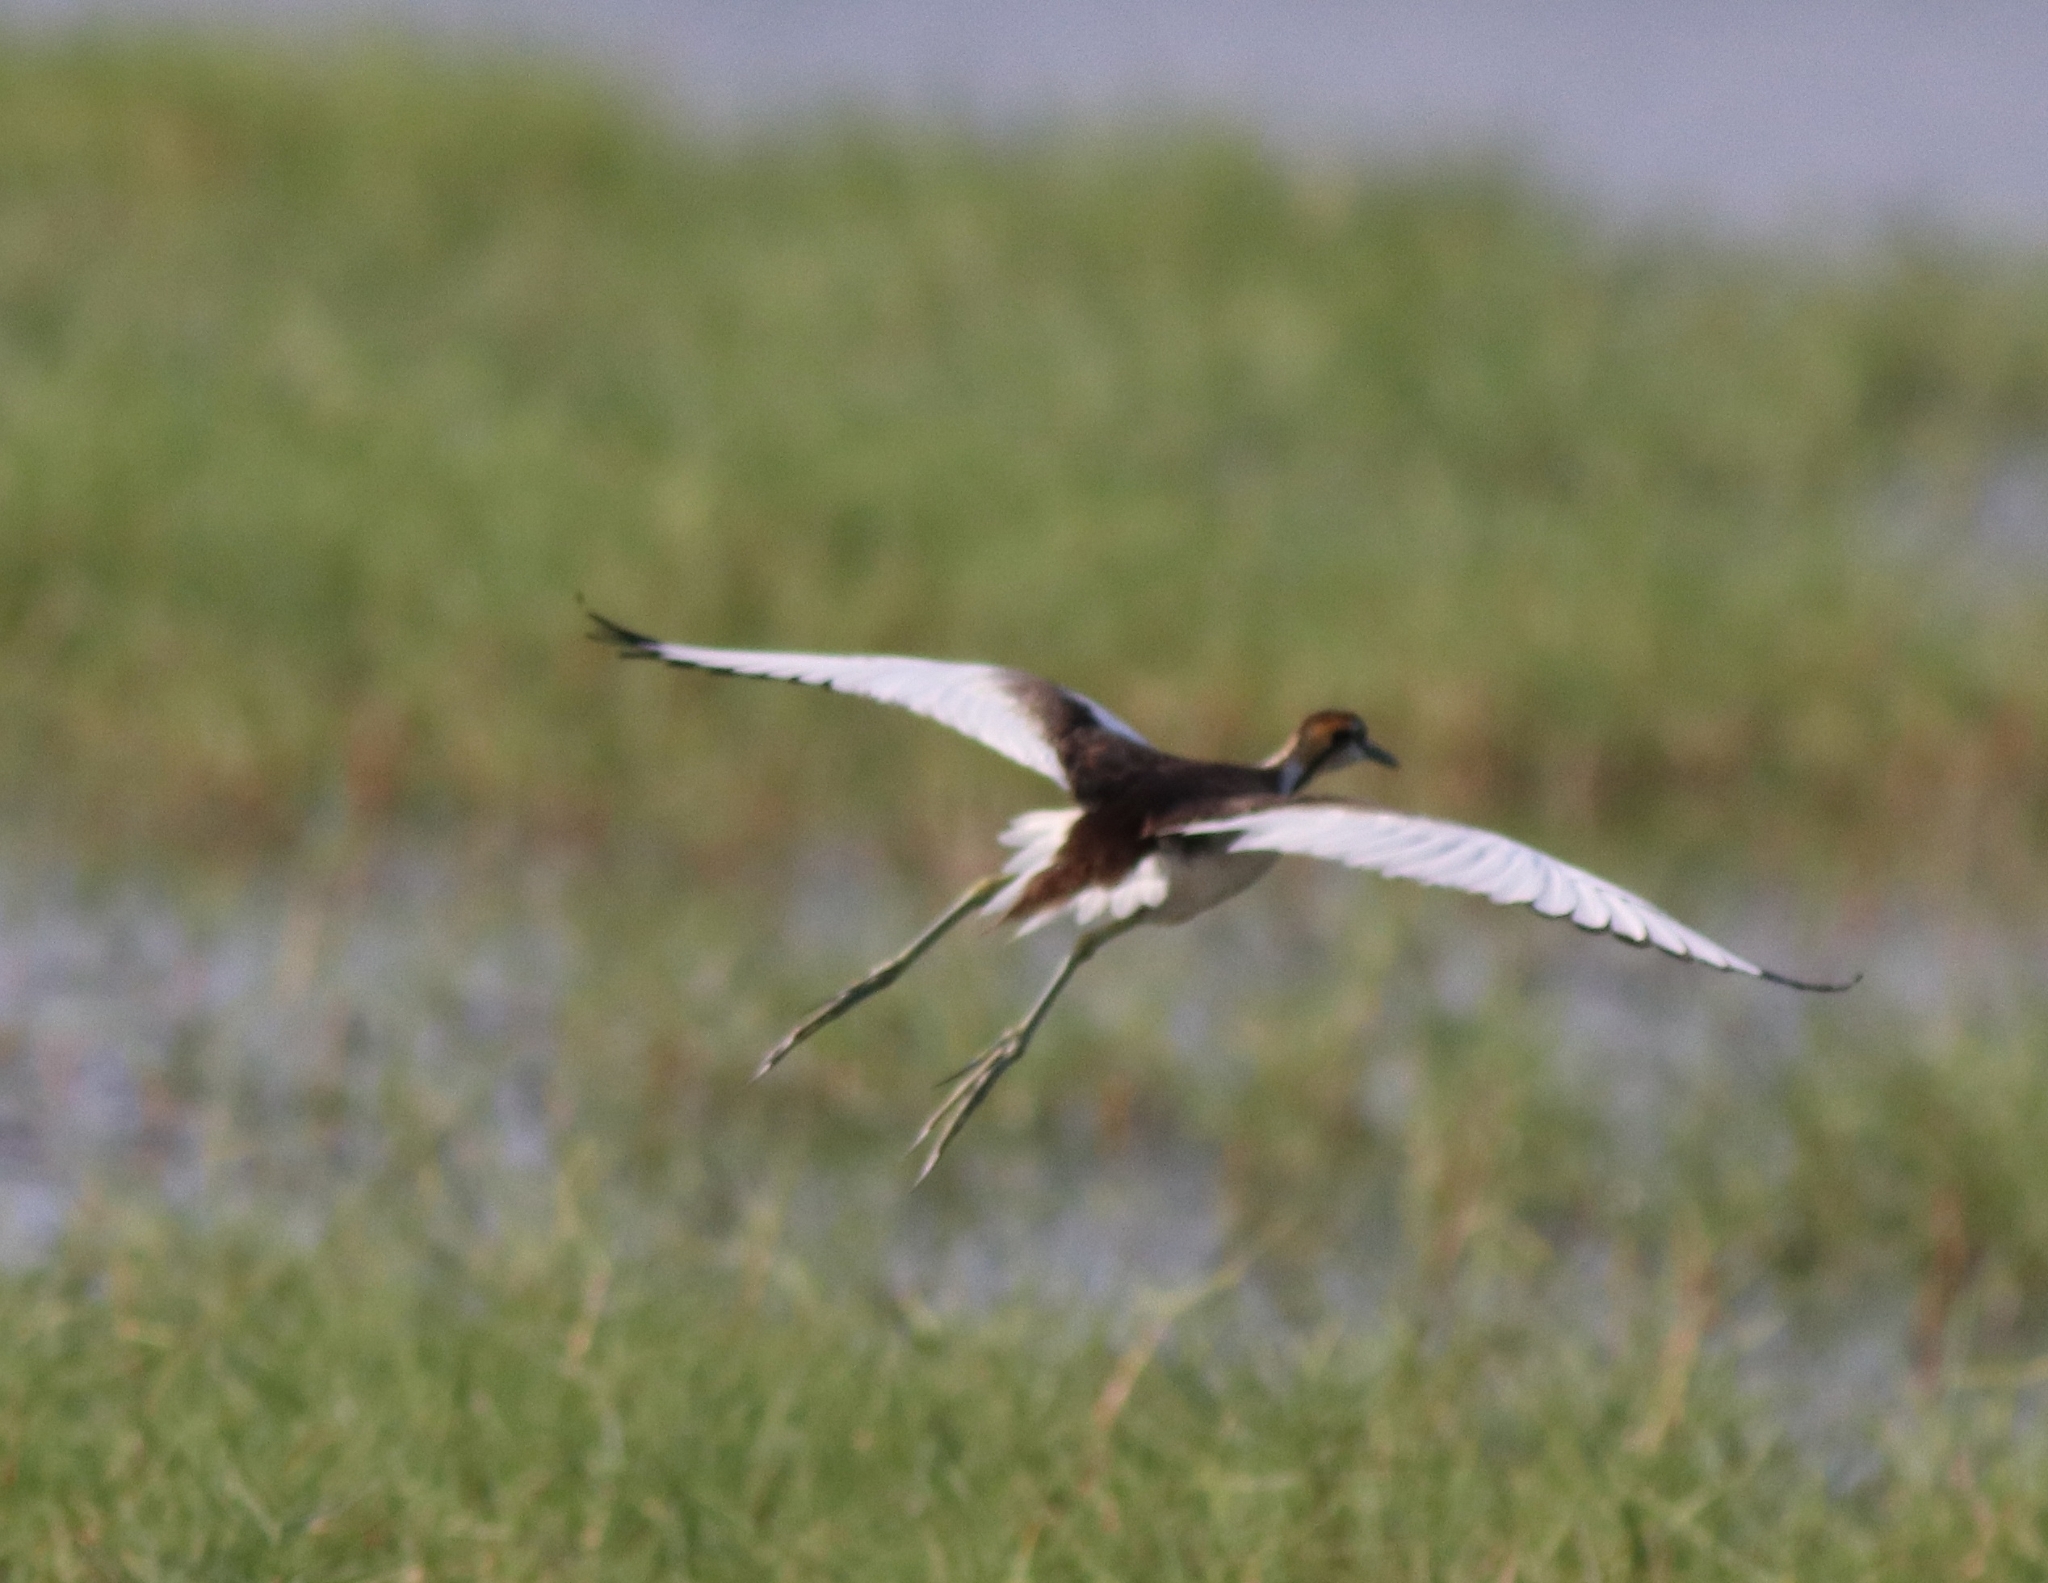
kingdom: Animalia
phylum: Chordata
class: Aves
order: Charadriiformes
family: Jacanidae
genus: Hydrophasianus
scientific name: Hydrophasianus chirurgus
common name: Pheasant-tailed jacana
